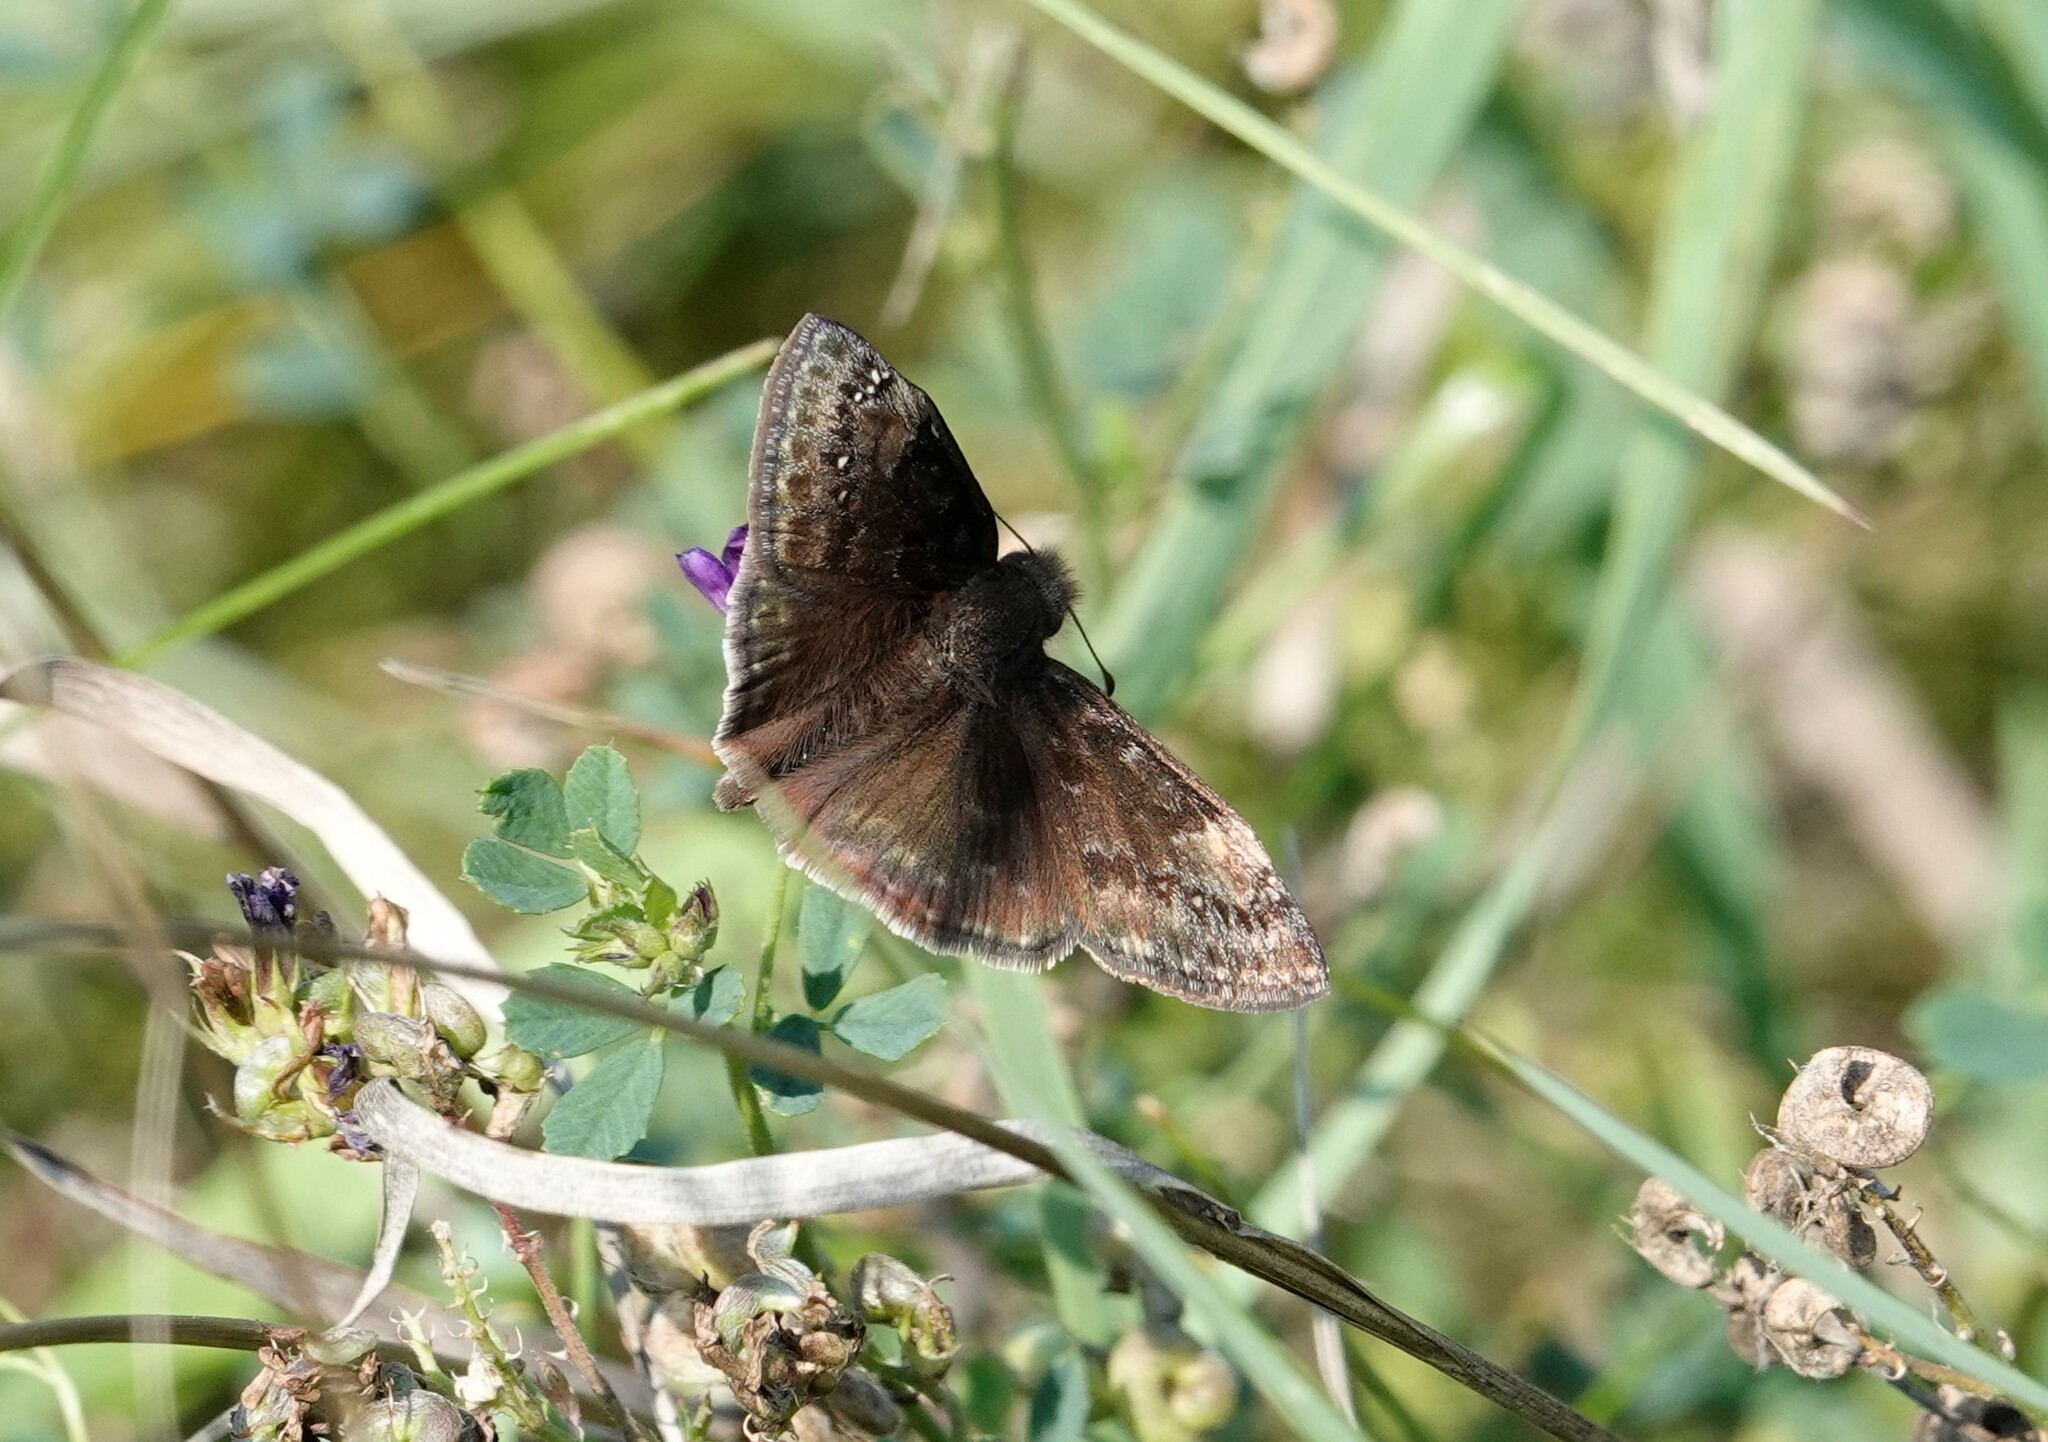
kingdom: Animalia
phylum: Arthropoda
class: Insecta
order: Lepidoptera
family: Hesperiidae
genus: Erynnis
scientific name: Erynnis baptisiae
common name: Wild indigo duskywing
